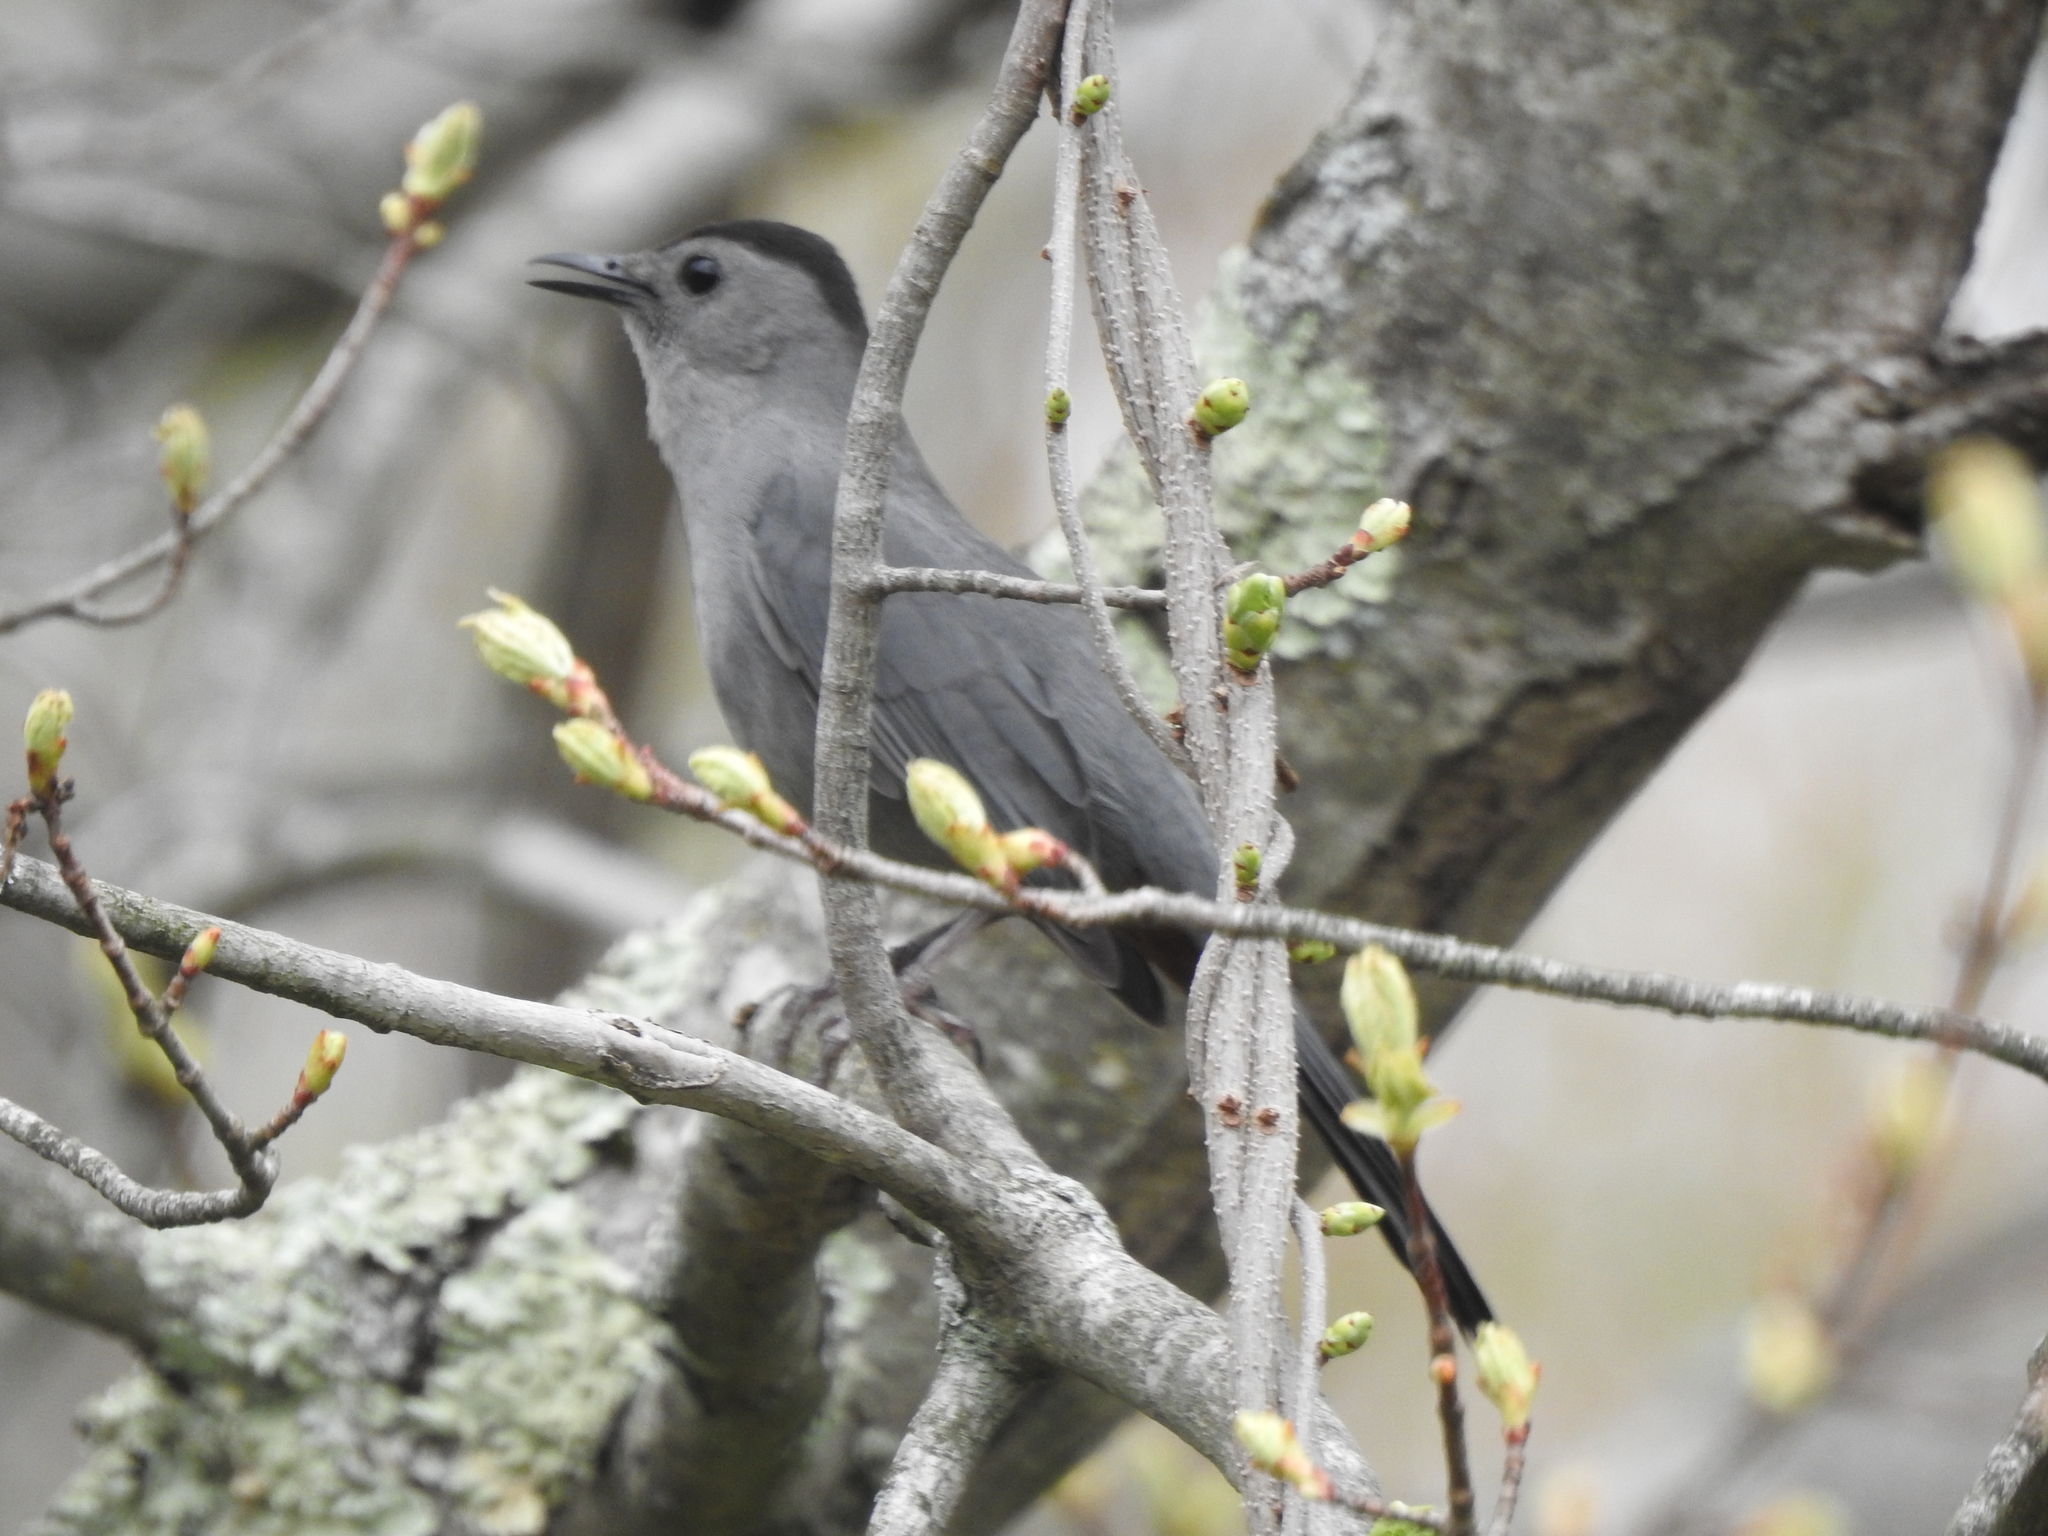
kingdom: Animalia
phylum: Chordata
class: Aves
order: Passeriformes
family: Mimidae
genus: Dumetella
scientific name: Dumetella carolinensis
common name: Gray catbird
